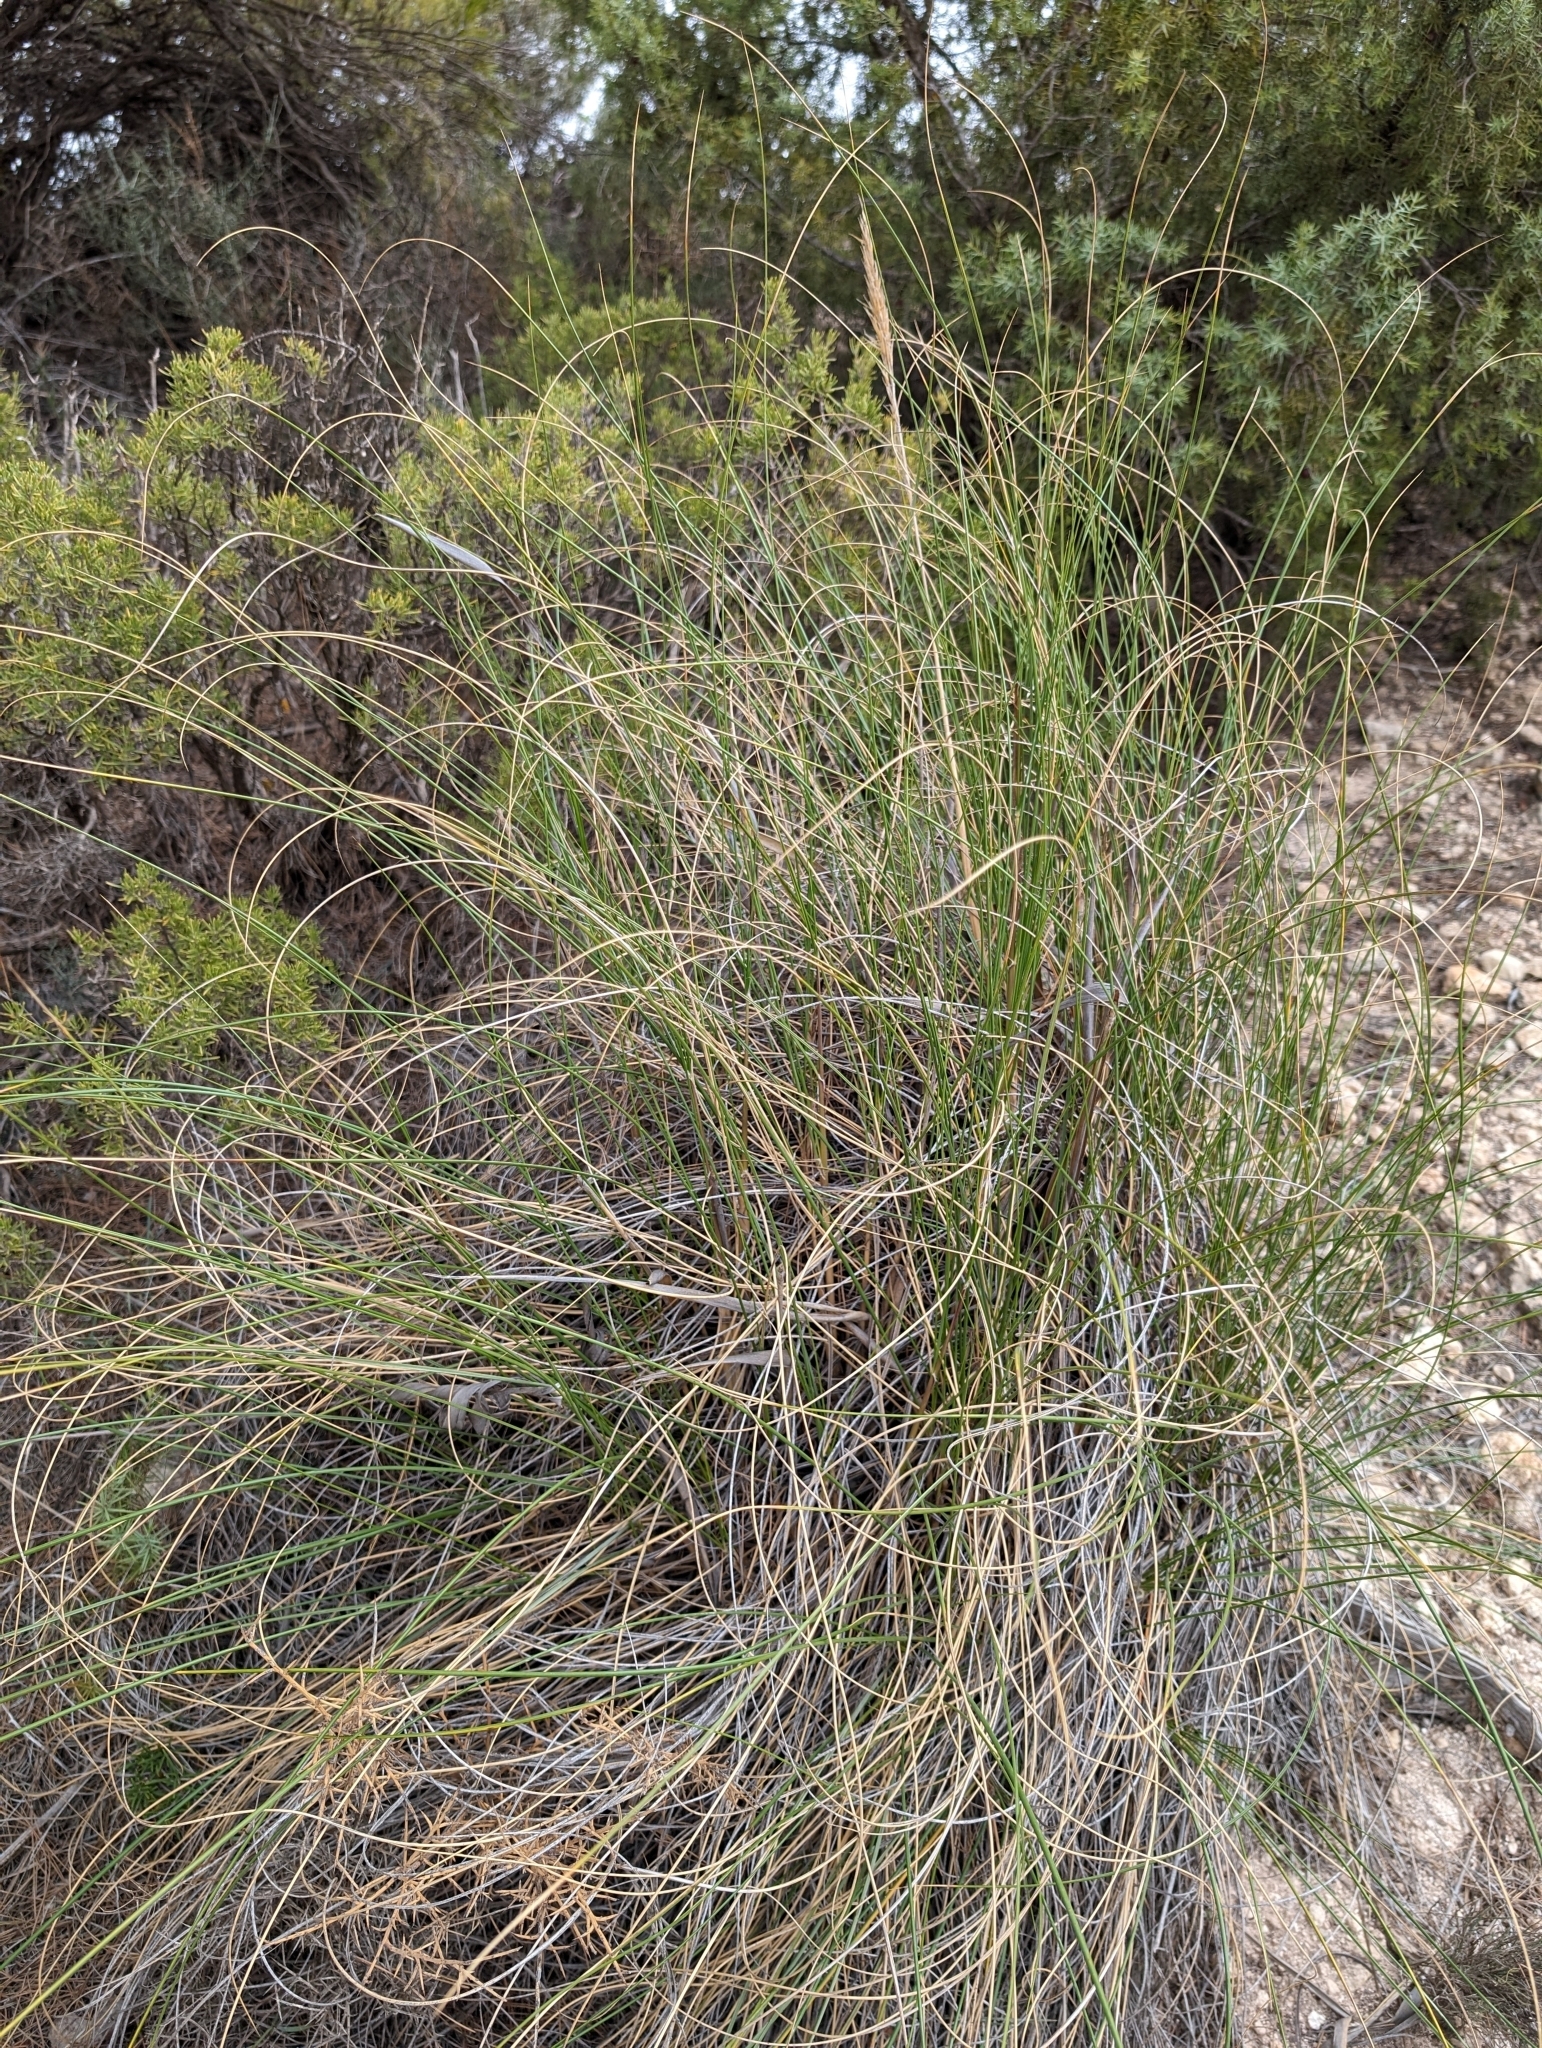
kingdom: Plantae
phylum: Tracheophyta
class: Liliopsida
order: Poales
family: Poaceae
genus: Macrochloa
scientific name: Macrochloa tenacissima
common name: Alfa grass
